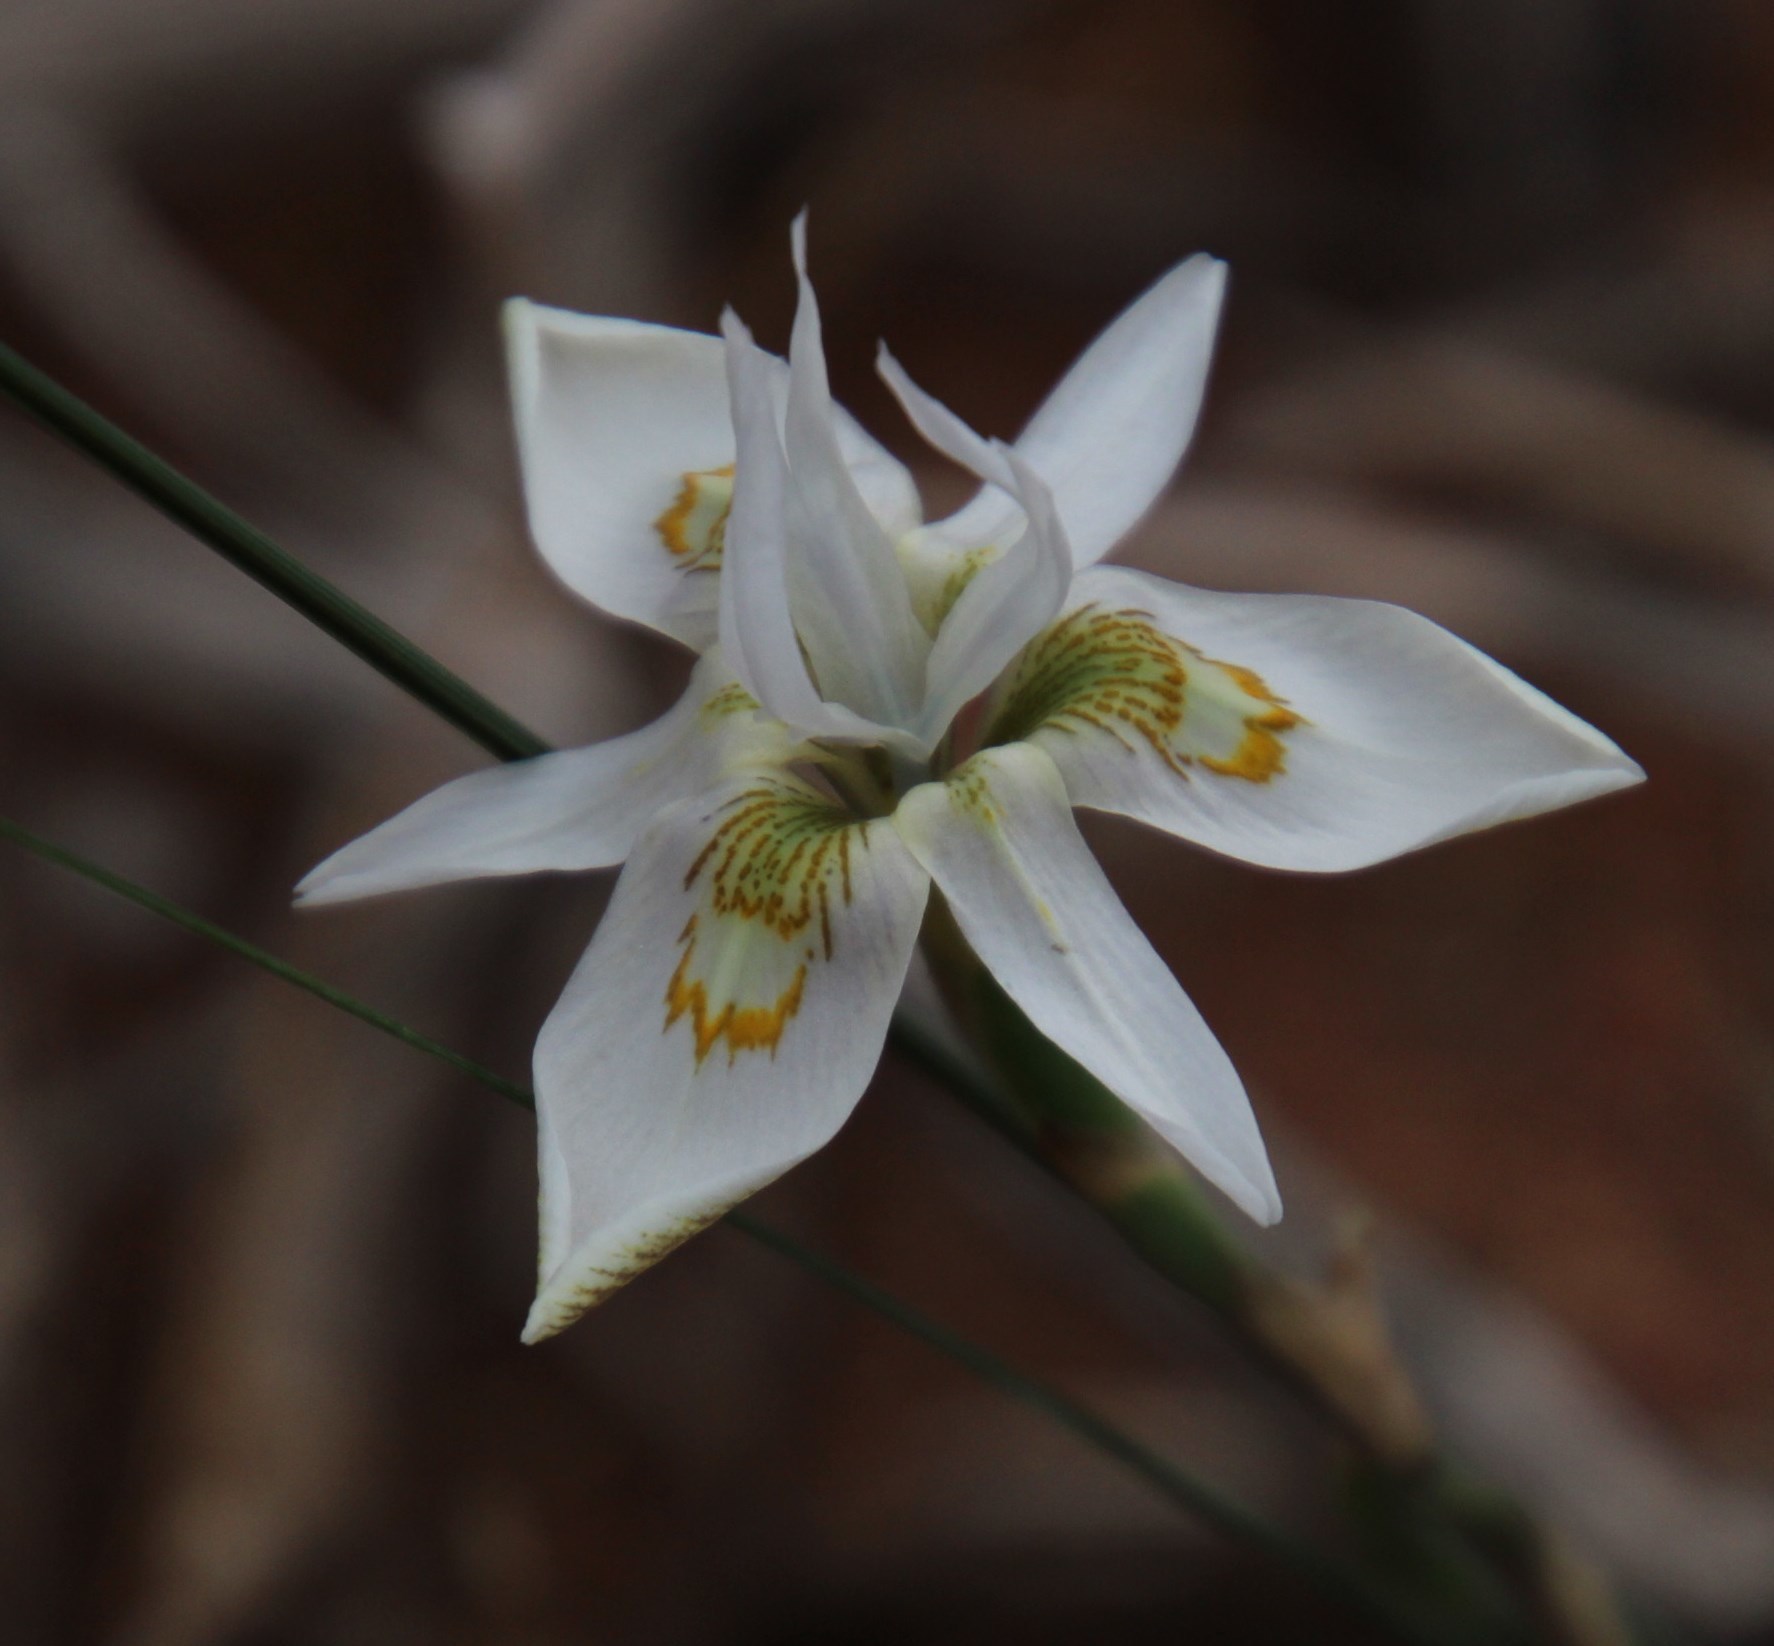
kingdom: Plantae
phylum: Tracheophyta
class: Liliopsida
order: Asparagales
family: Iridaceae
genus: Moraea
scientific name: Moraea filicaulis
